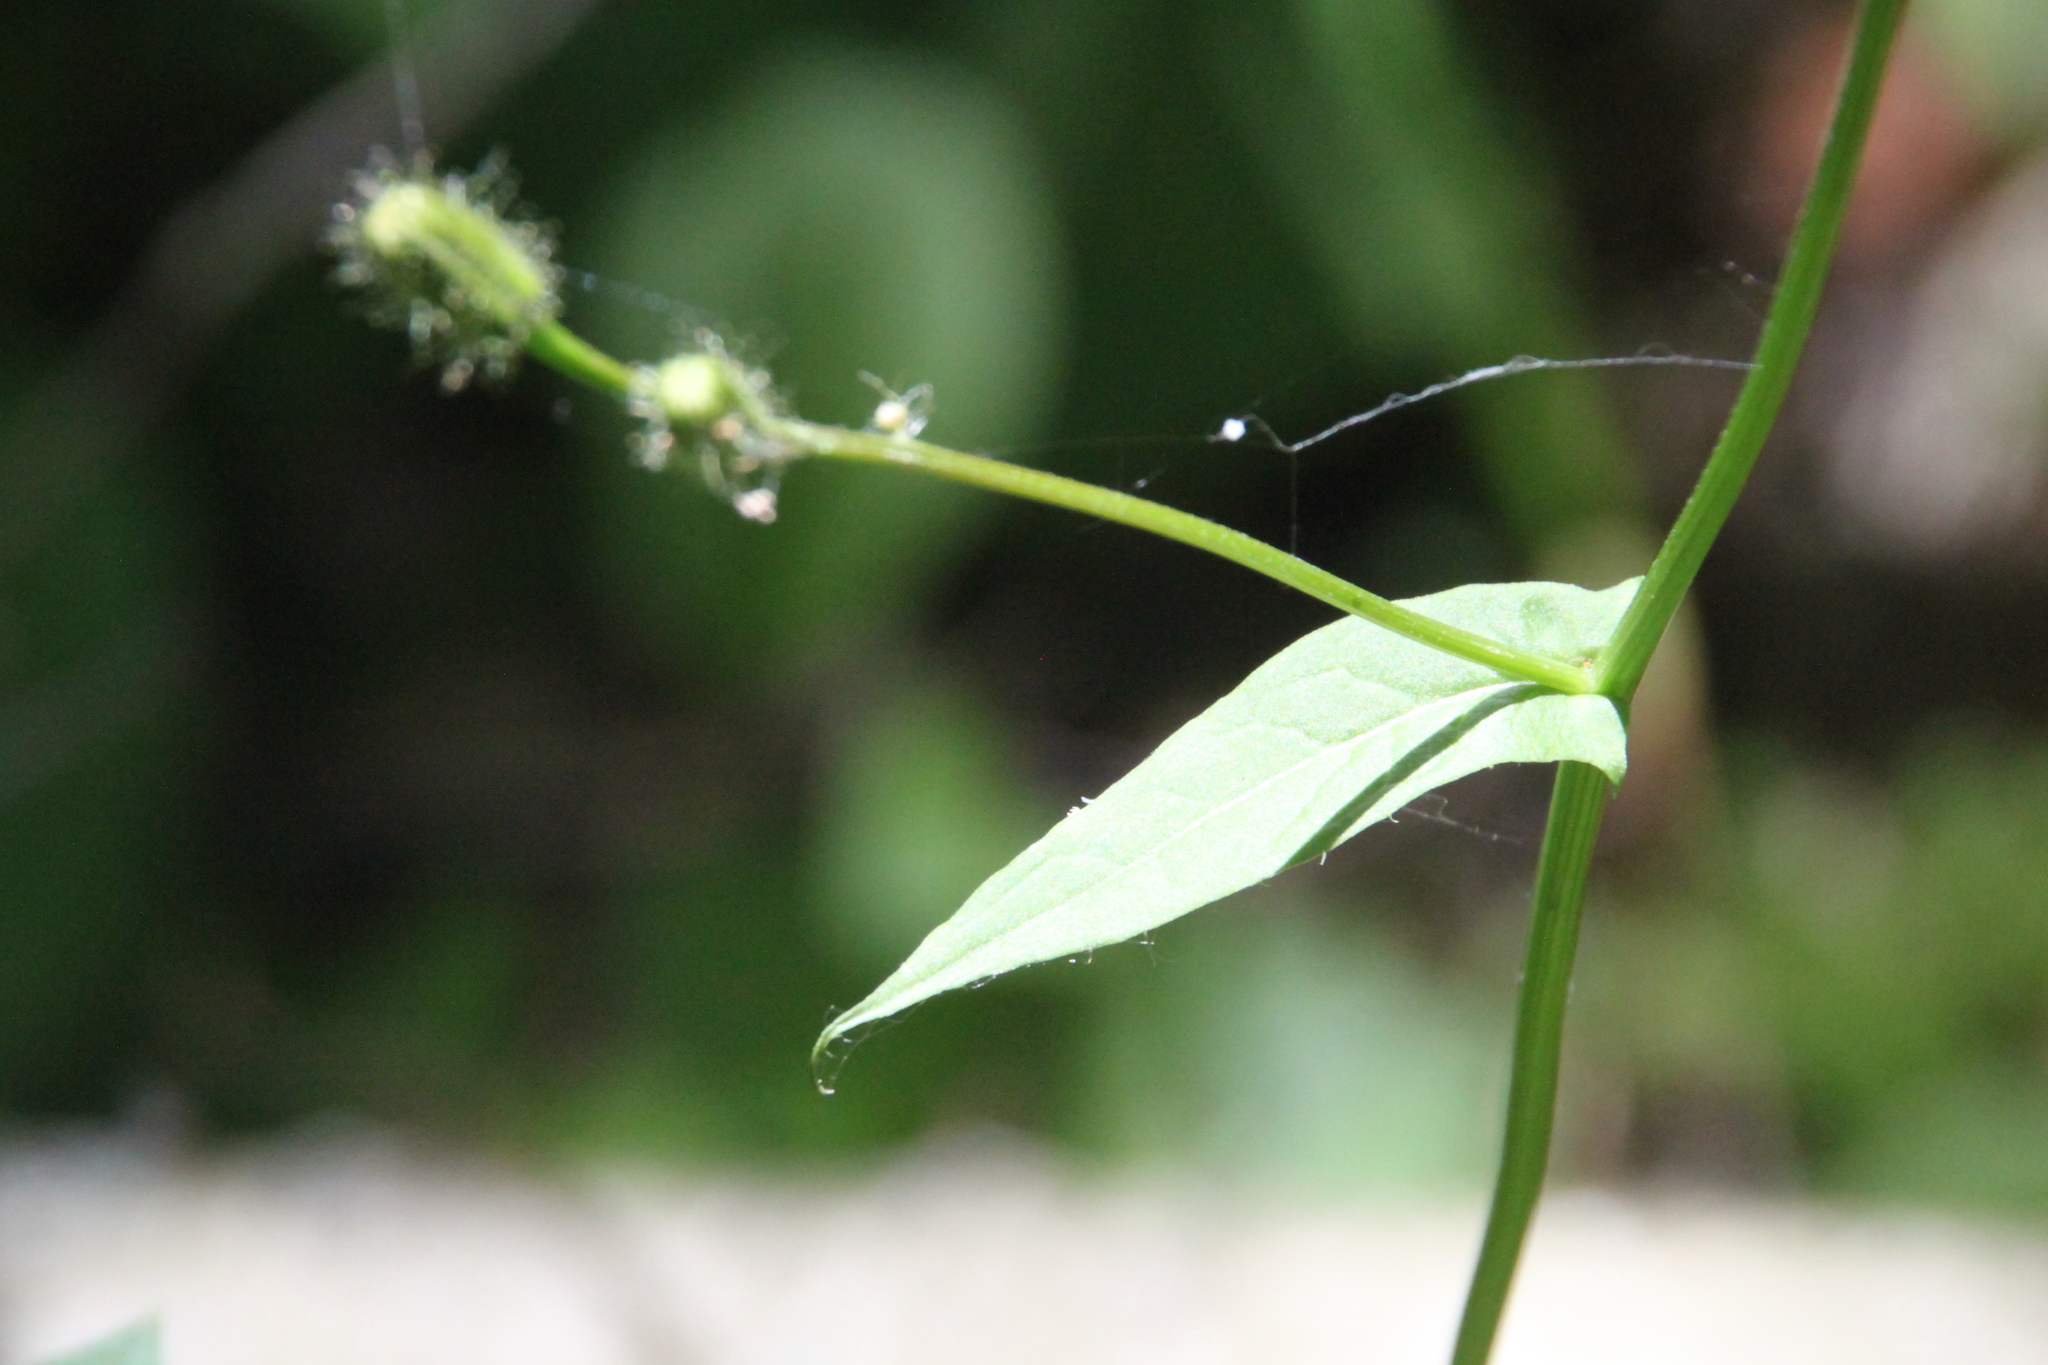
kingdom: Plantae
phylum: Tracheophyta
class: Magnoliopsida
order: Asterales
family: Asteraceae
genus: Crepis
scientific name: Crepis paludosa
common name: Marsh hawk's-beard
